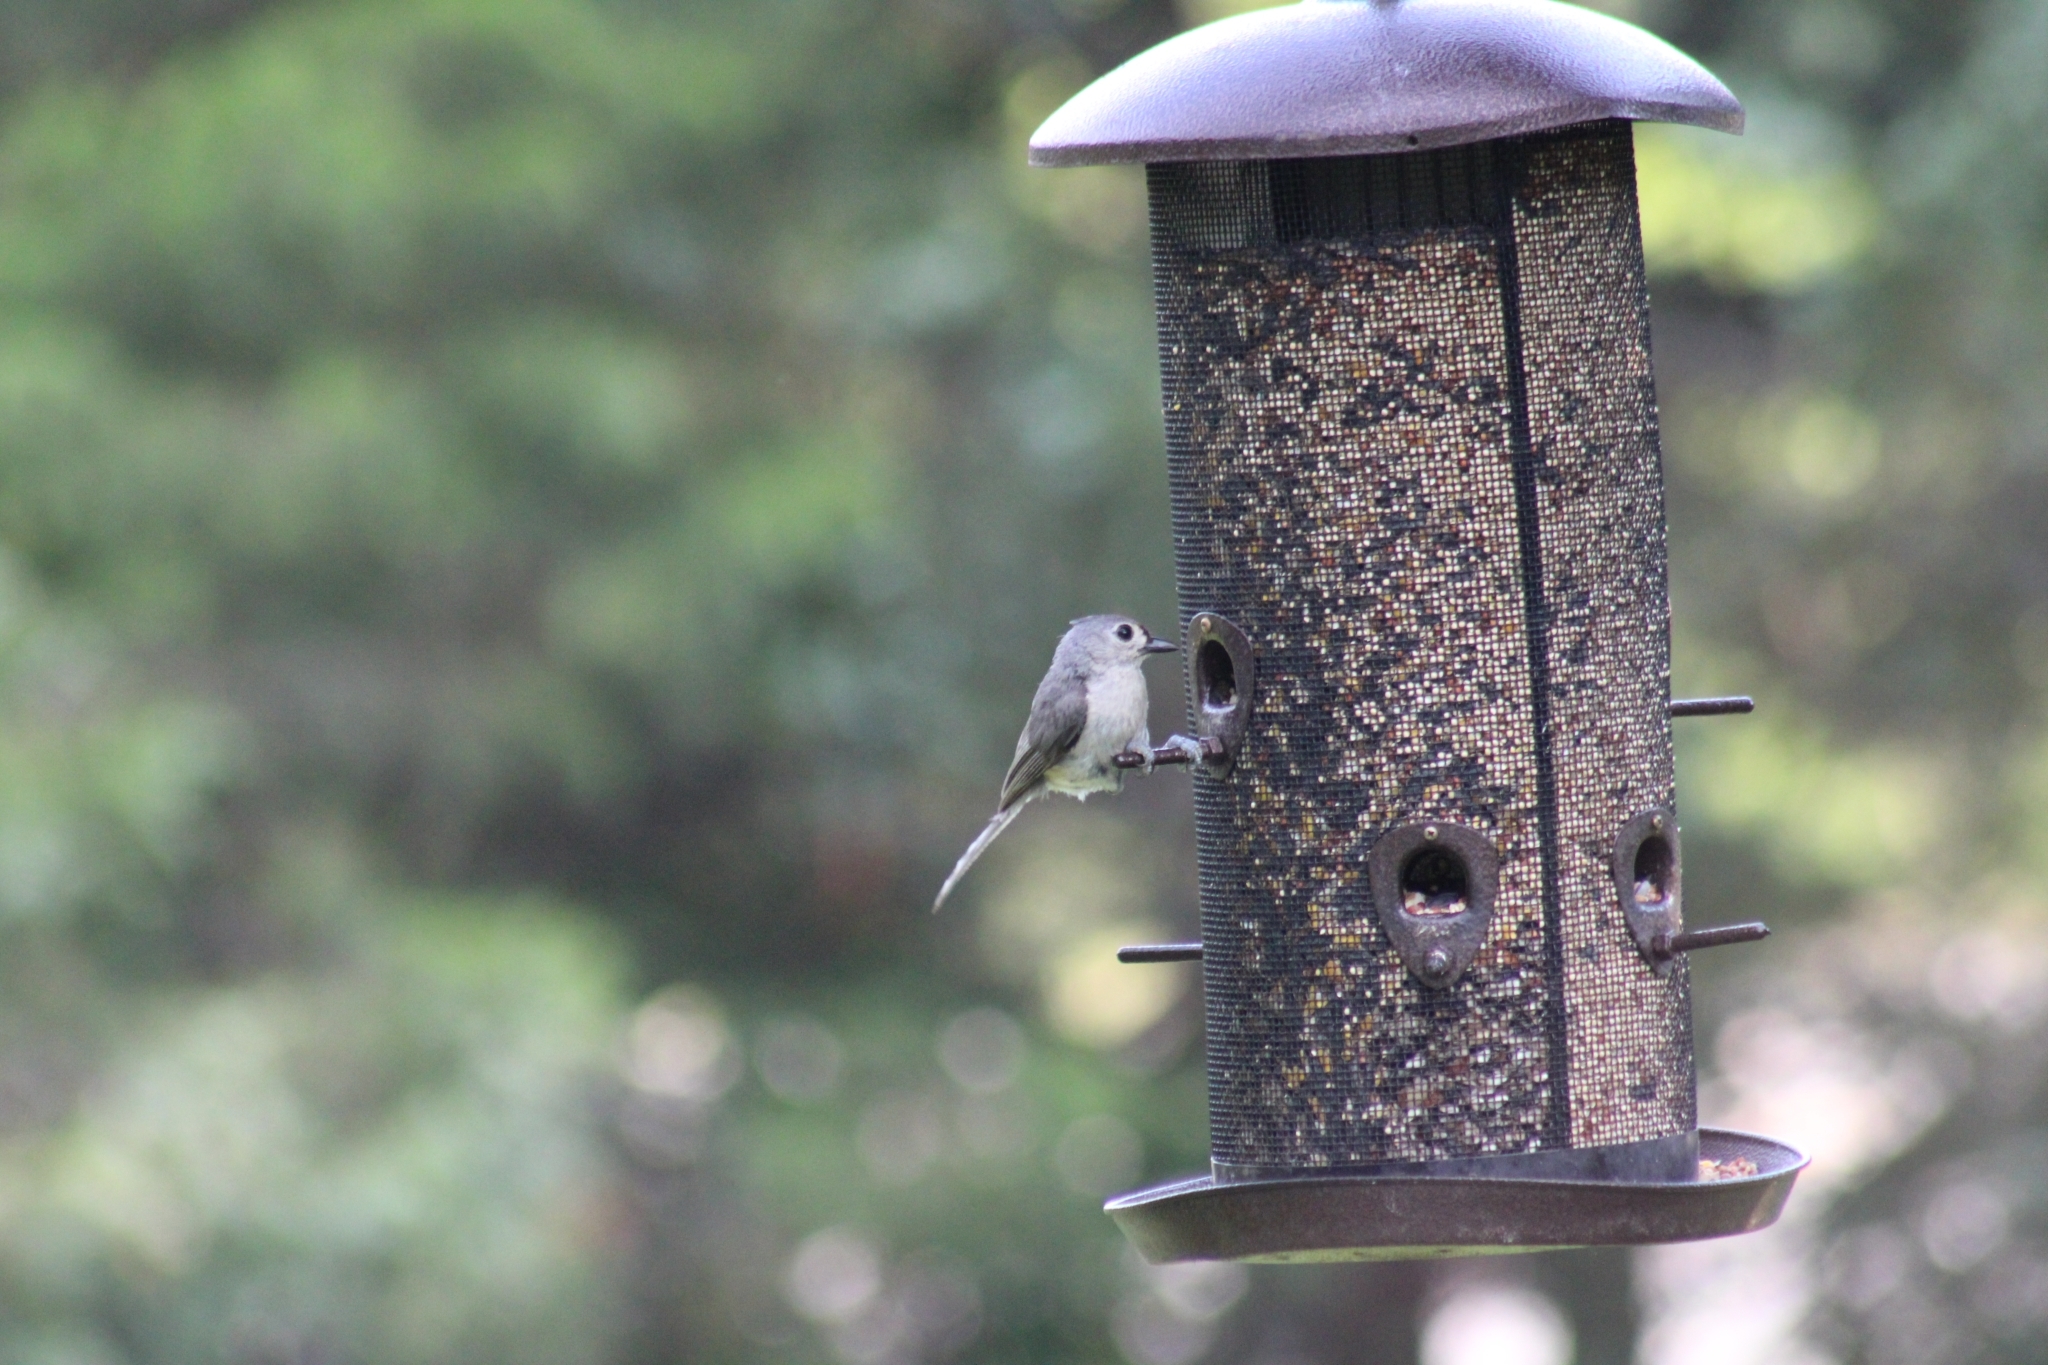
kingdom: Animalia
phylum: Chordata
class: Aves
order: Passeriformes
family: Paridae
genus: Baeolophus
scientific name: Baeolophus bicolor
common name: Tufted titmouse
